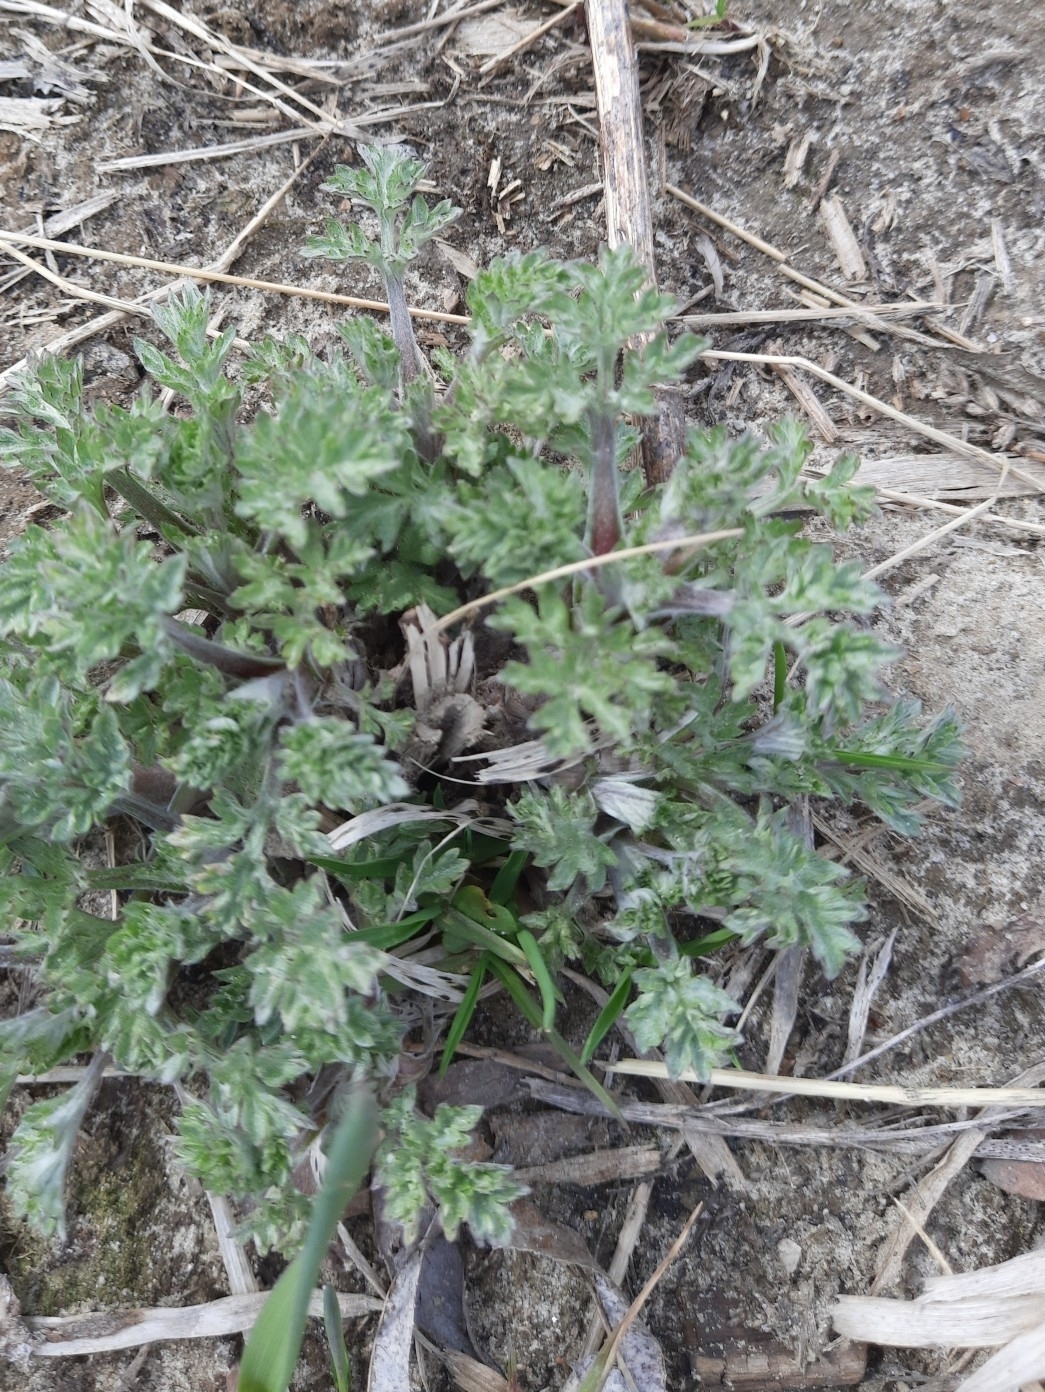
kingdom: Plantae
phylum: Tracheophyta
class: Magnoliopsida
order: Asterales
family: Asteraceae
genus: Artemisia
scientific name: Artemisia vulgaris
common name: Mugwort
